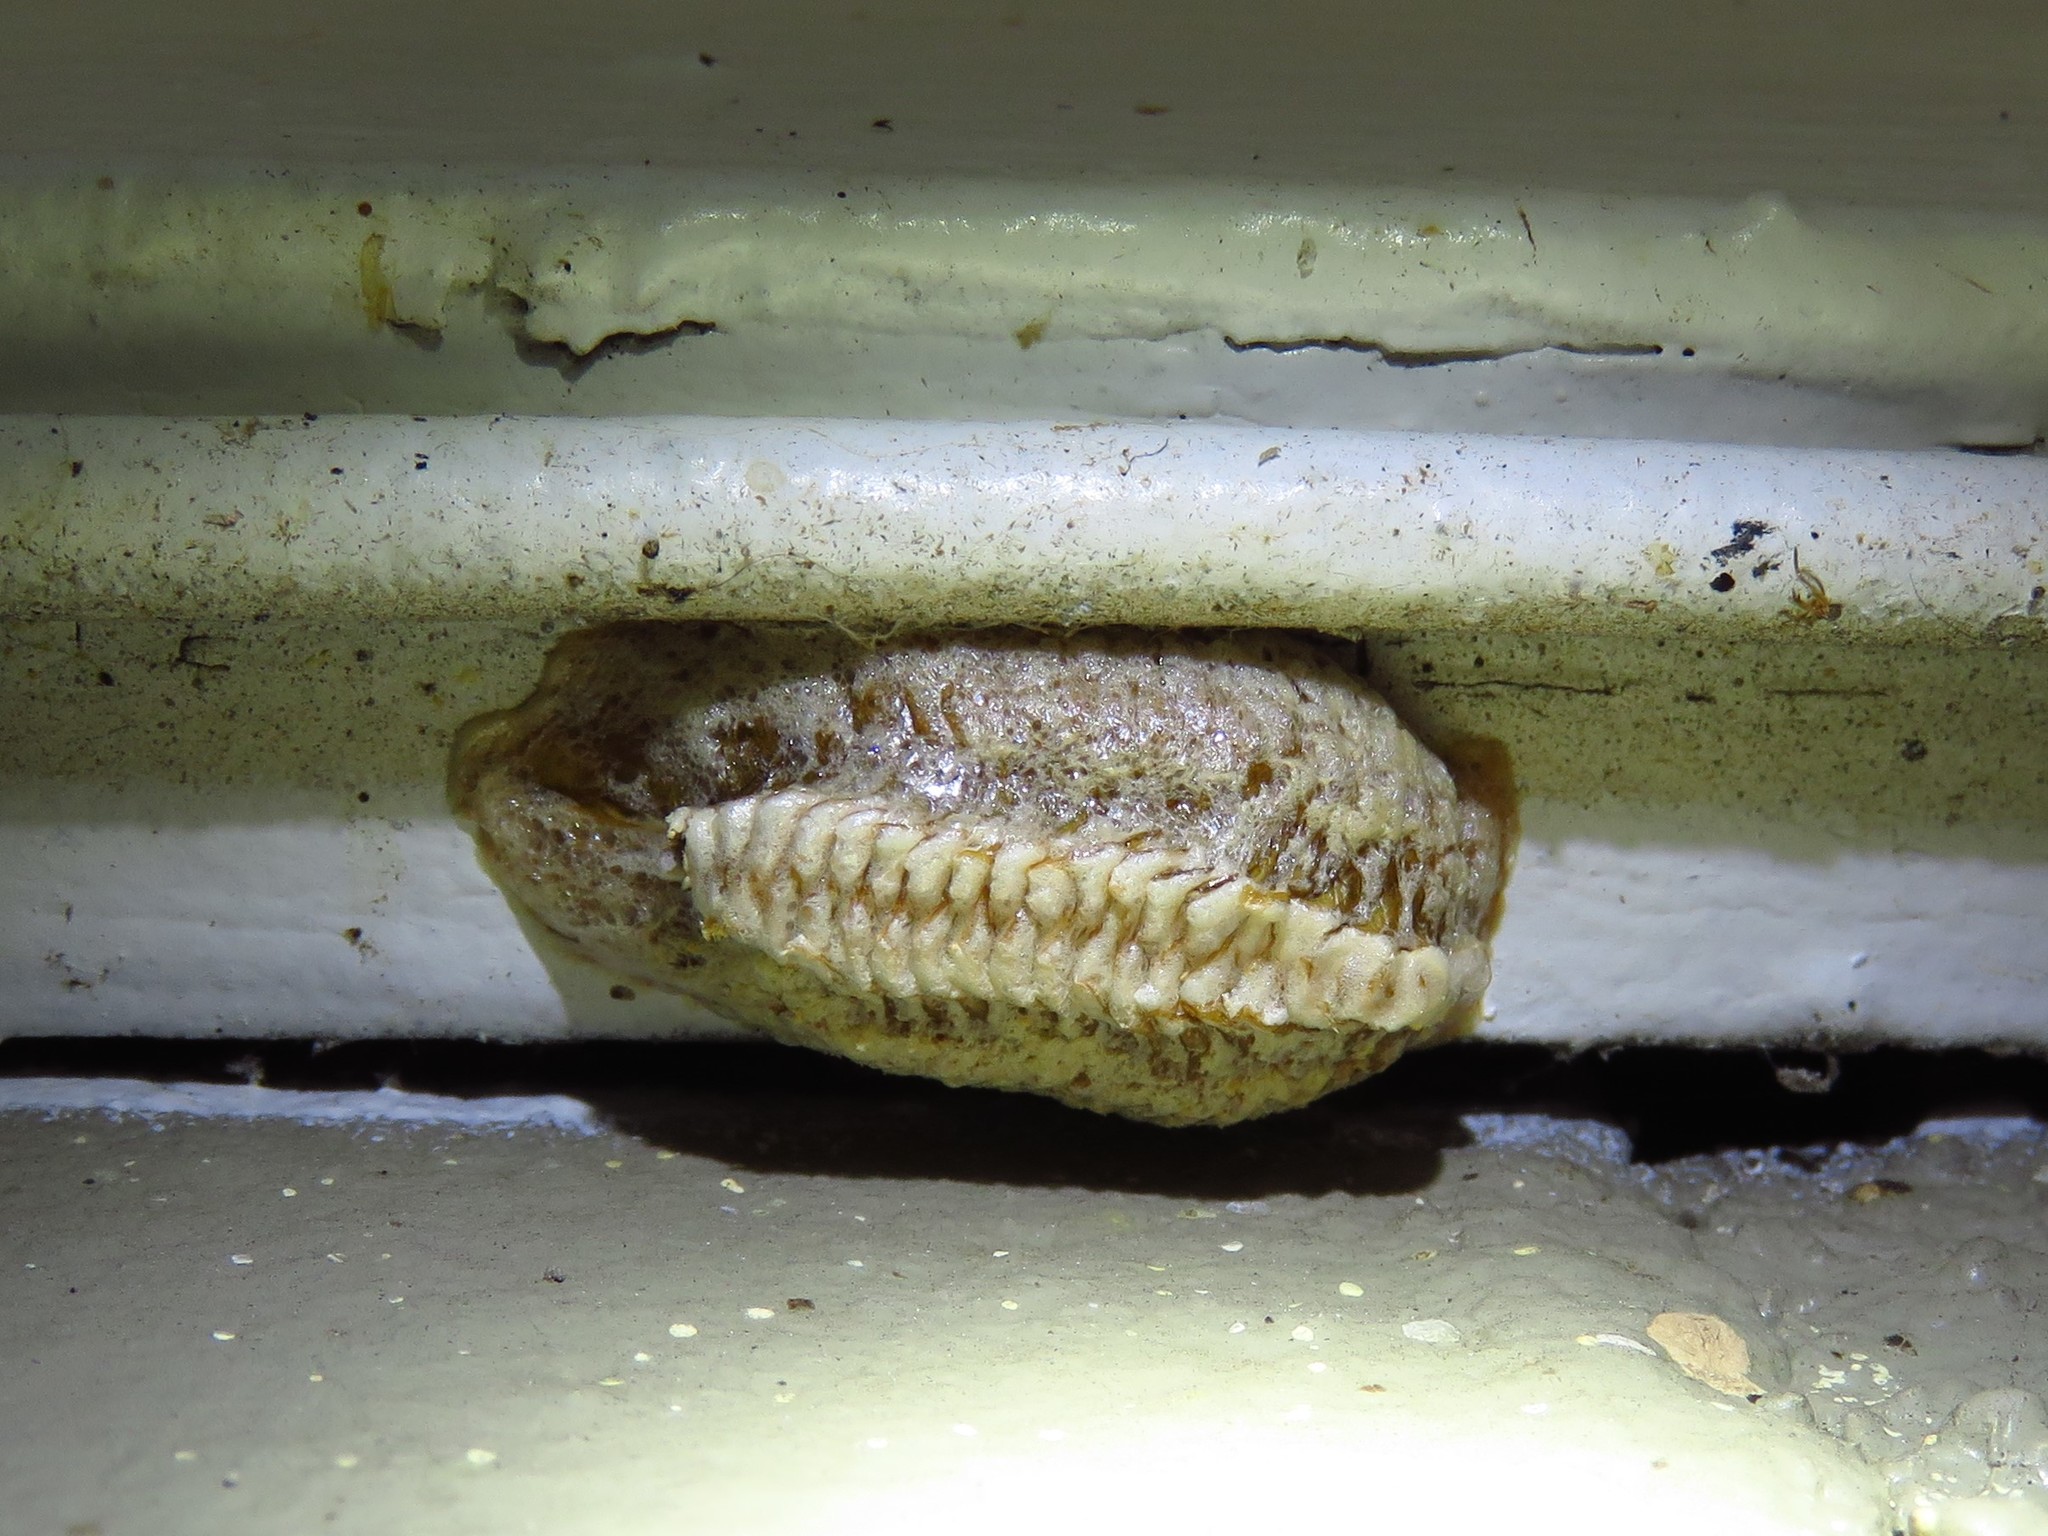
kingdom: Animalia
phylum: Arthropoda
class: Insecta
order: Mantodea
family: Mantidae
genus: Stagmomantis
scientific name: Stagmomantis carolina
